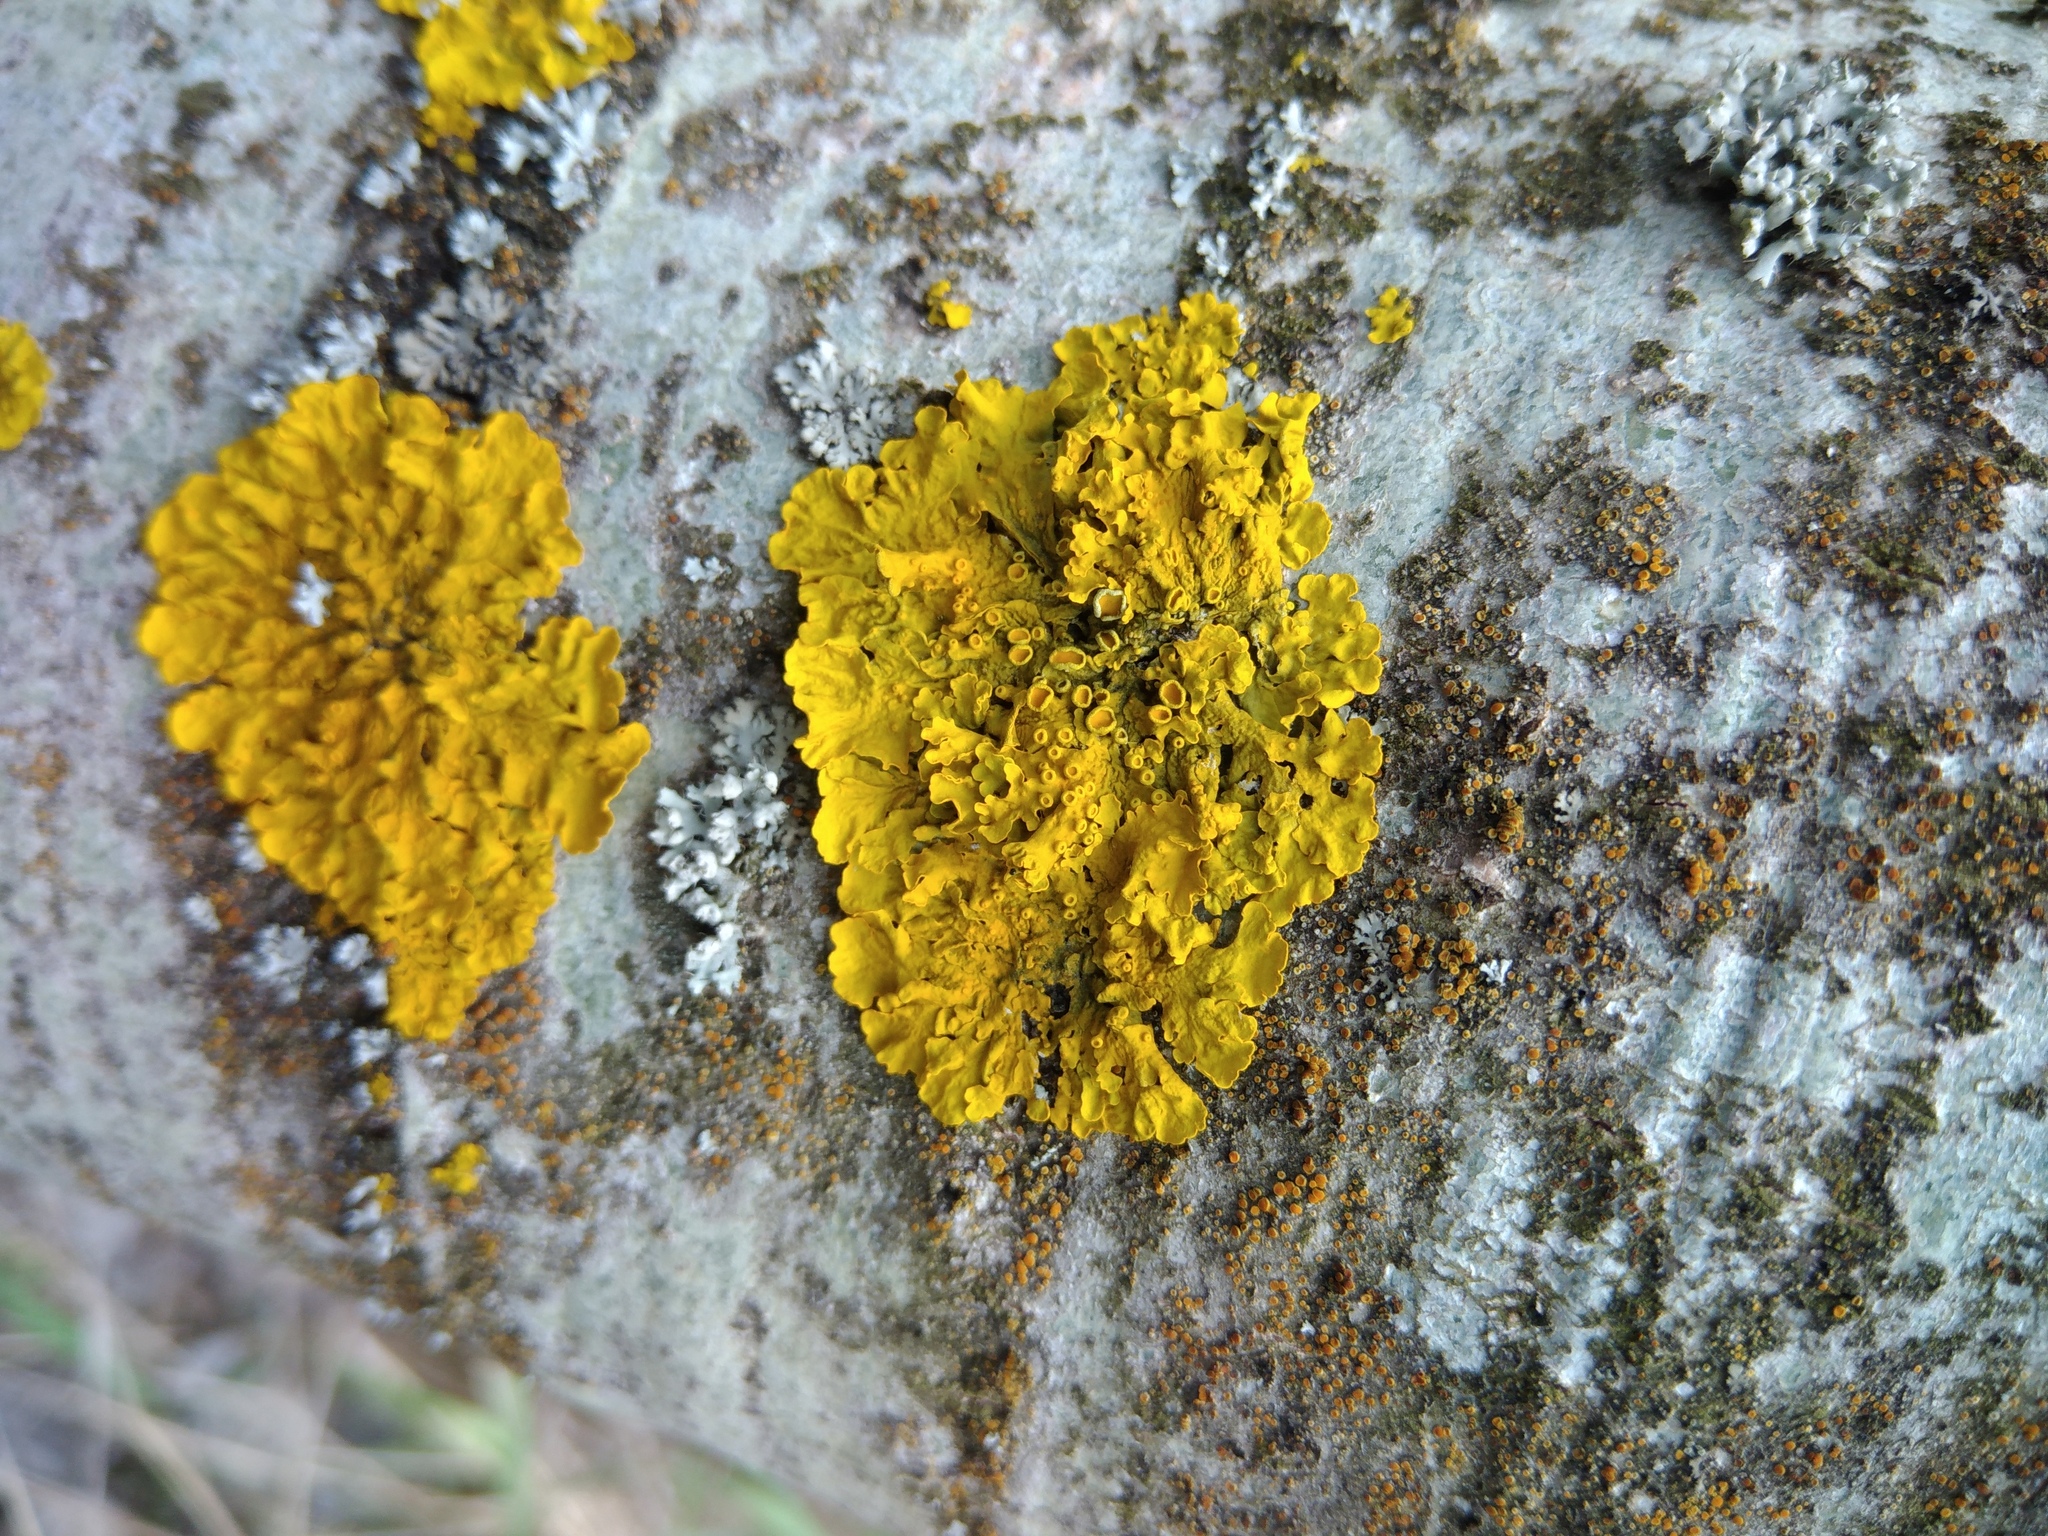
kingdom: Fungi
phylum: Ascomycota
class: Lecanoromycetes
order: Teloschistales
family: Teloschistaceae
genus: Xanthoria
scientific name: Xanthoria parietina
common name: Common orange lichen
